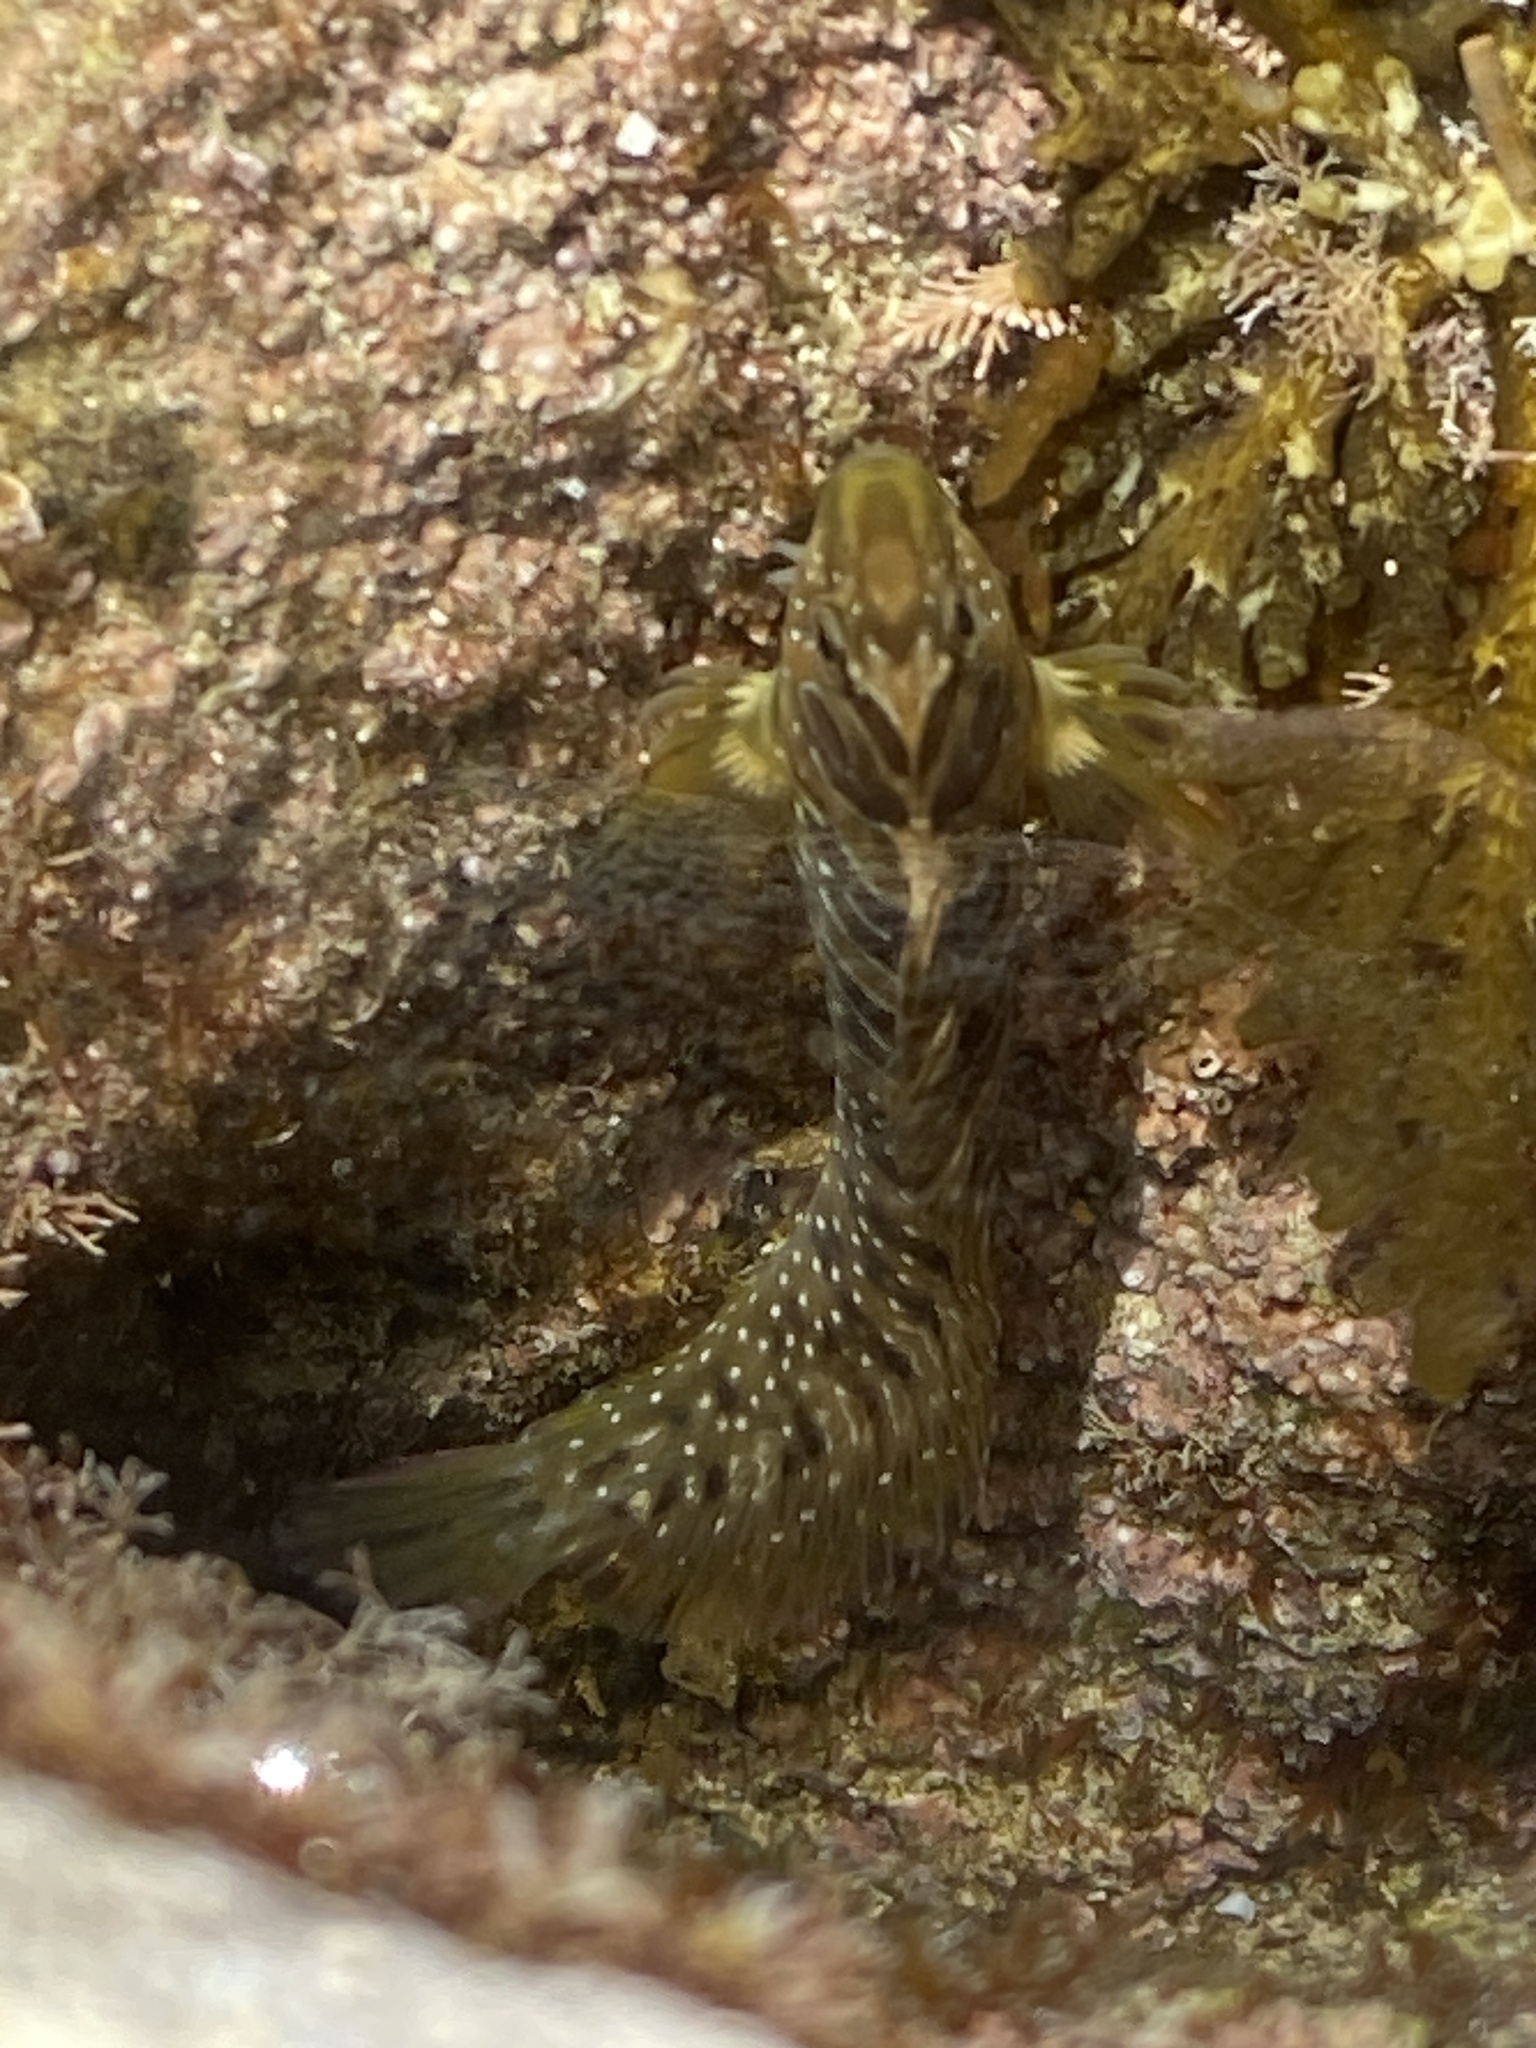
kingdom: Animalia
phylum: Chordata
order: Perciformes
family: Blenniidae
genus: Salaria
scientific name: Salaria pavo
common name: Peacock blenny
